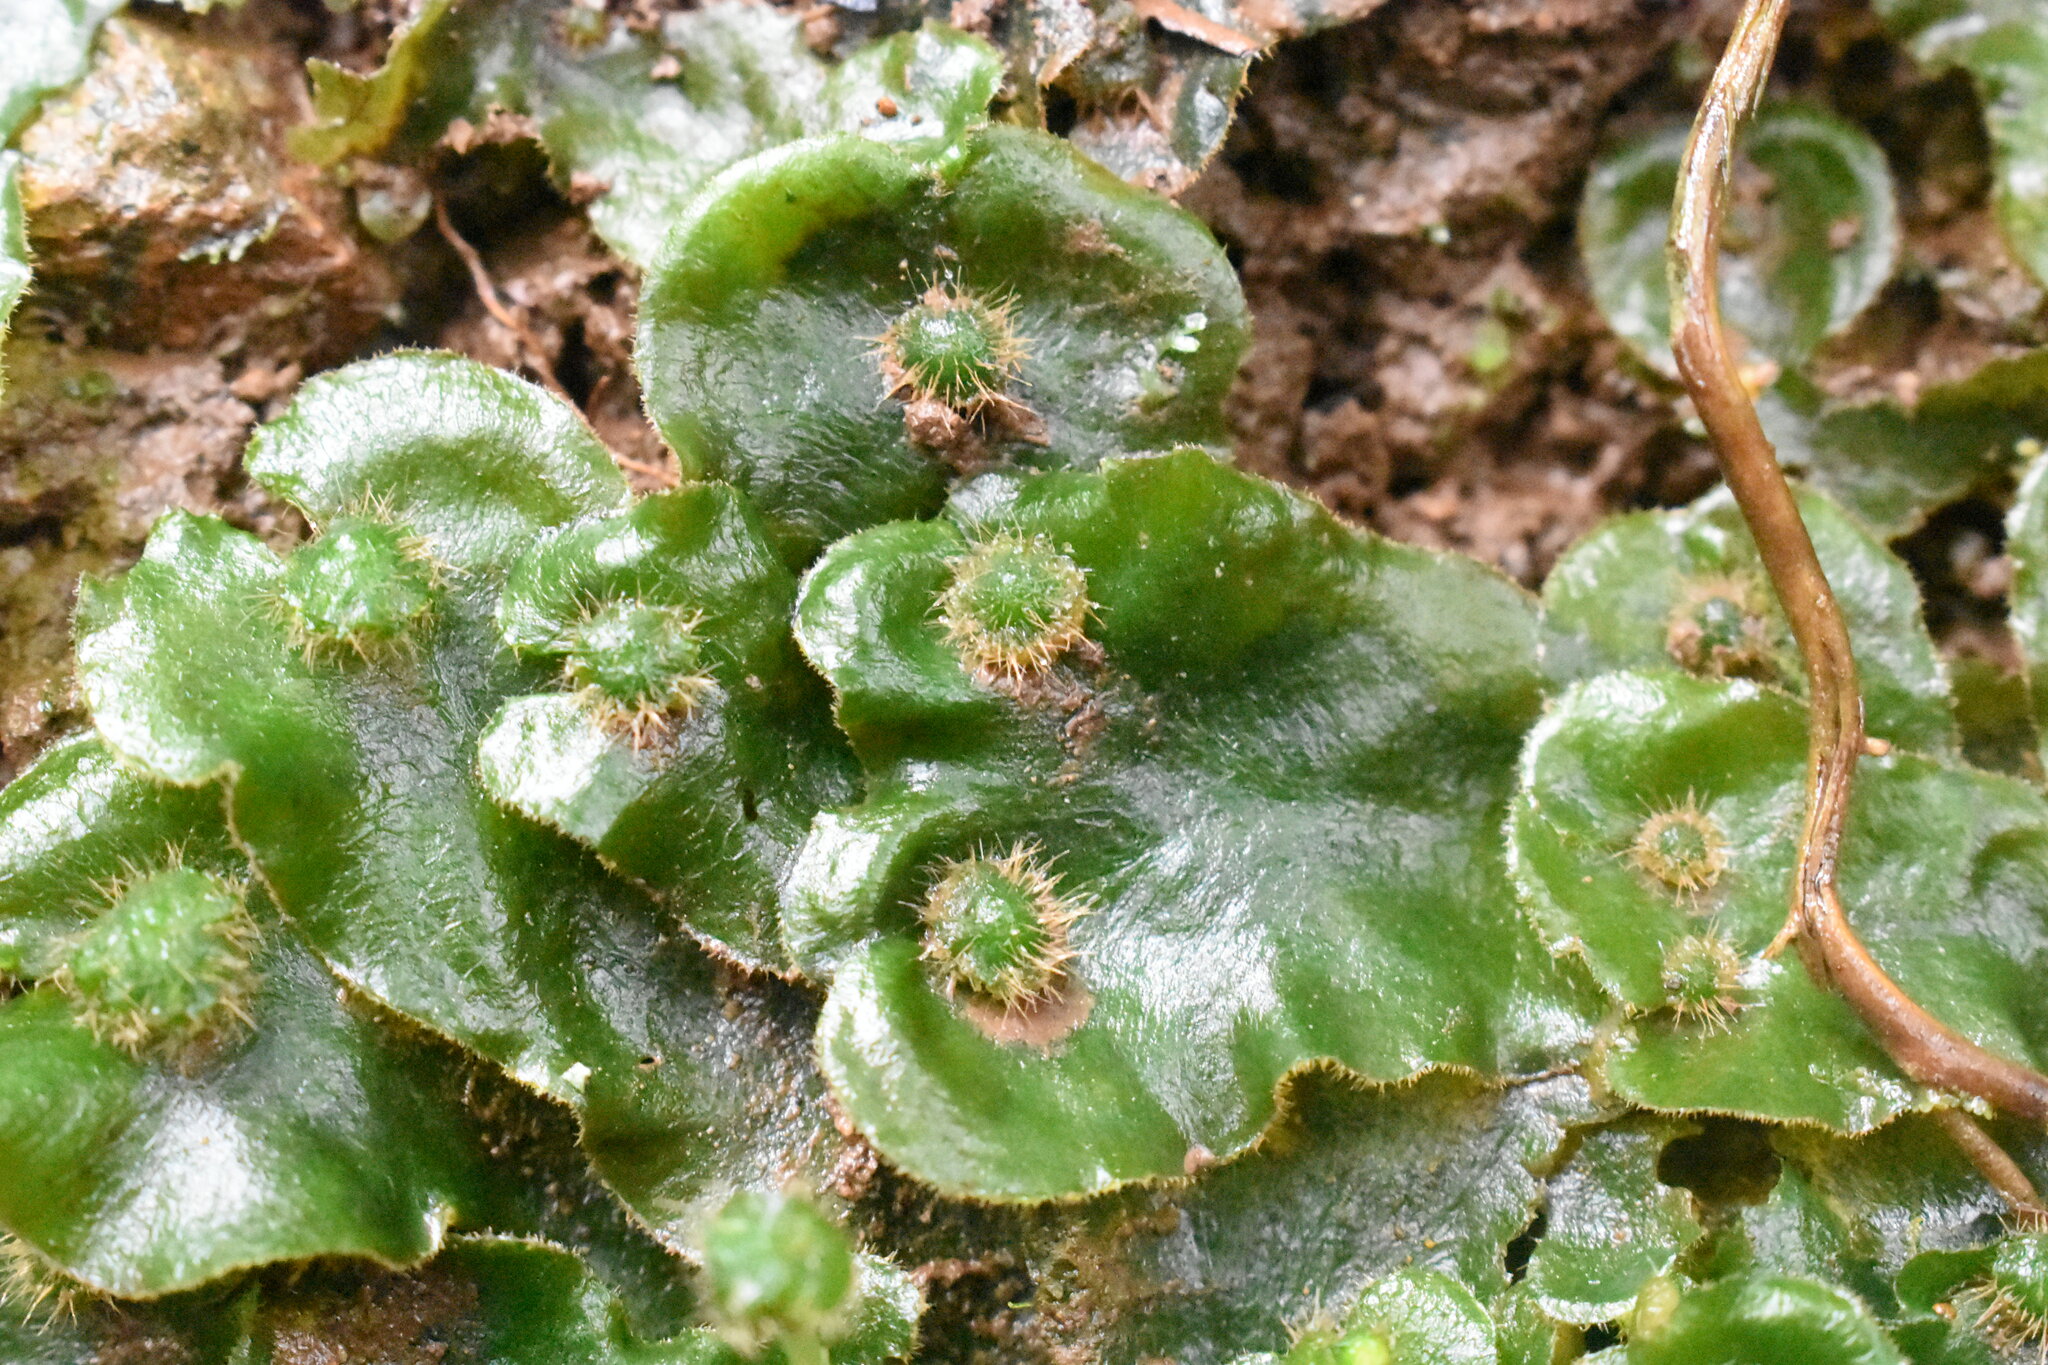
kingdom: Plantae
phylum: Marchantiophyta
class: Marchantiopsida
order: Marchantiales
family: Dumortieraceae
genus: Dumortiera
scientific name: Dumortiera hirsuta
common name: Dumortier's liverwort
